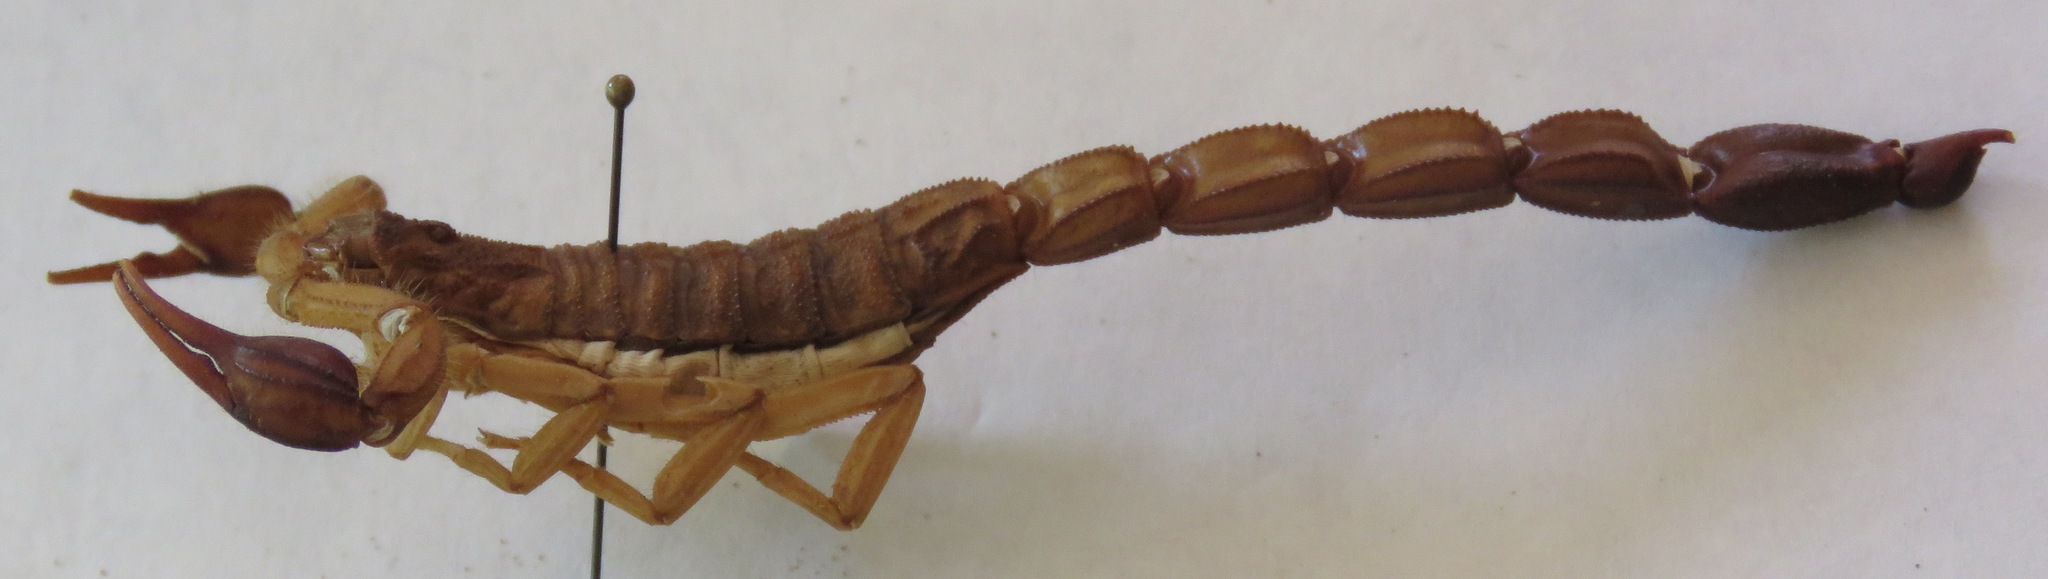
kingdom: Animalia
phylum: Arthropoda
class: Arachnida
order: Scorpiones
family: Buthidae
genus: Centruroides
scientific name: Centruroides edwardsii
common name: Scorpions
